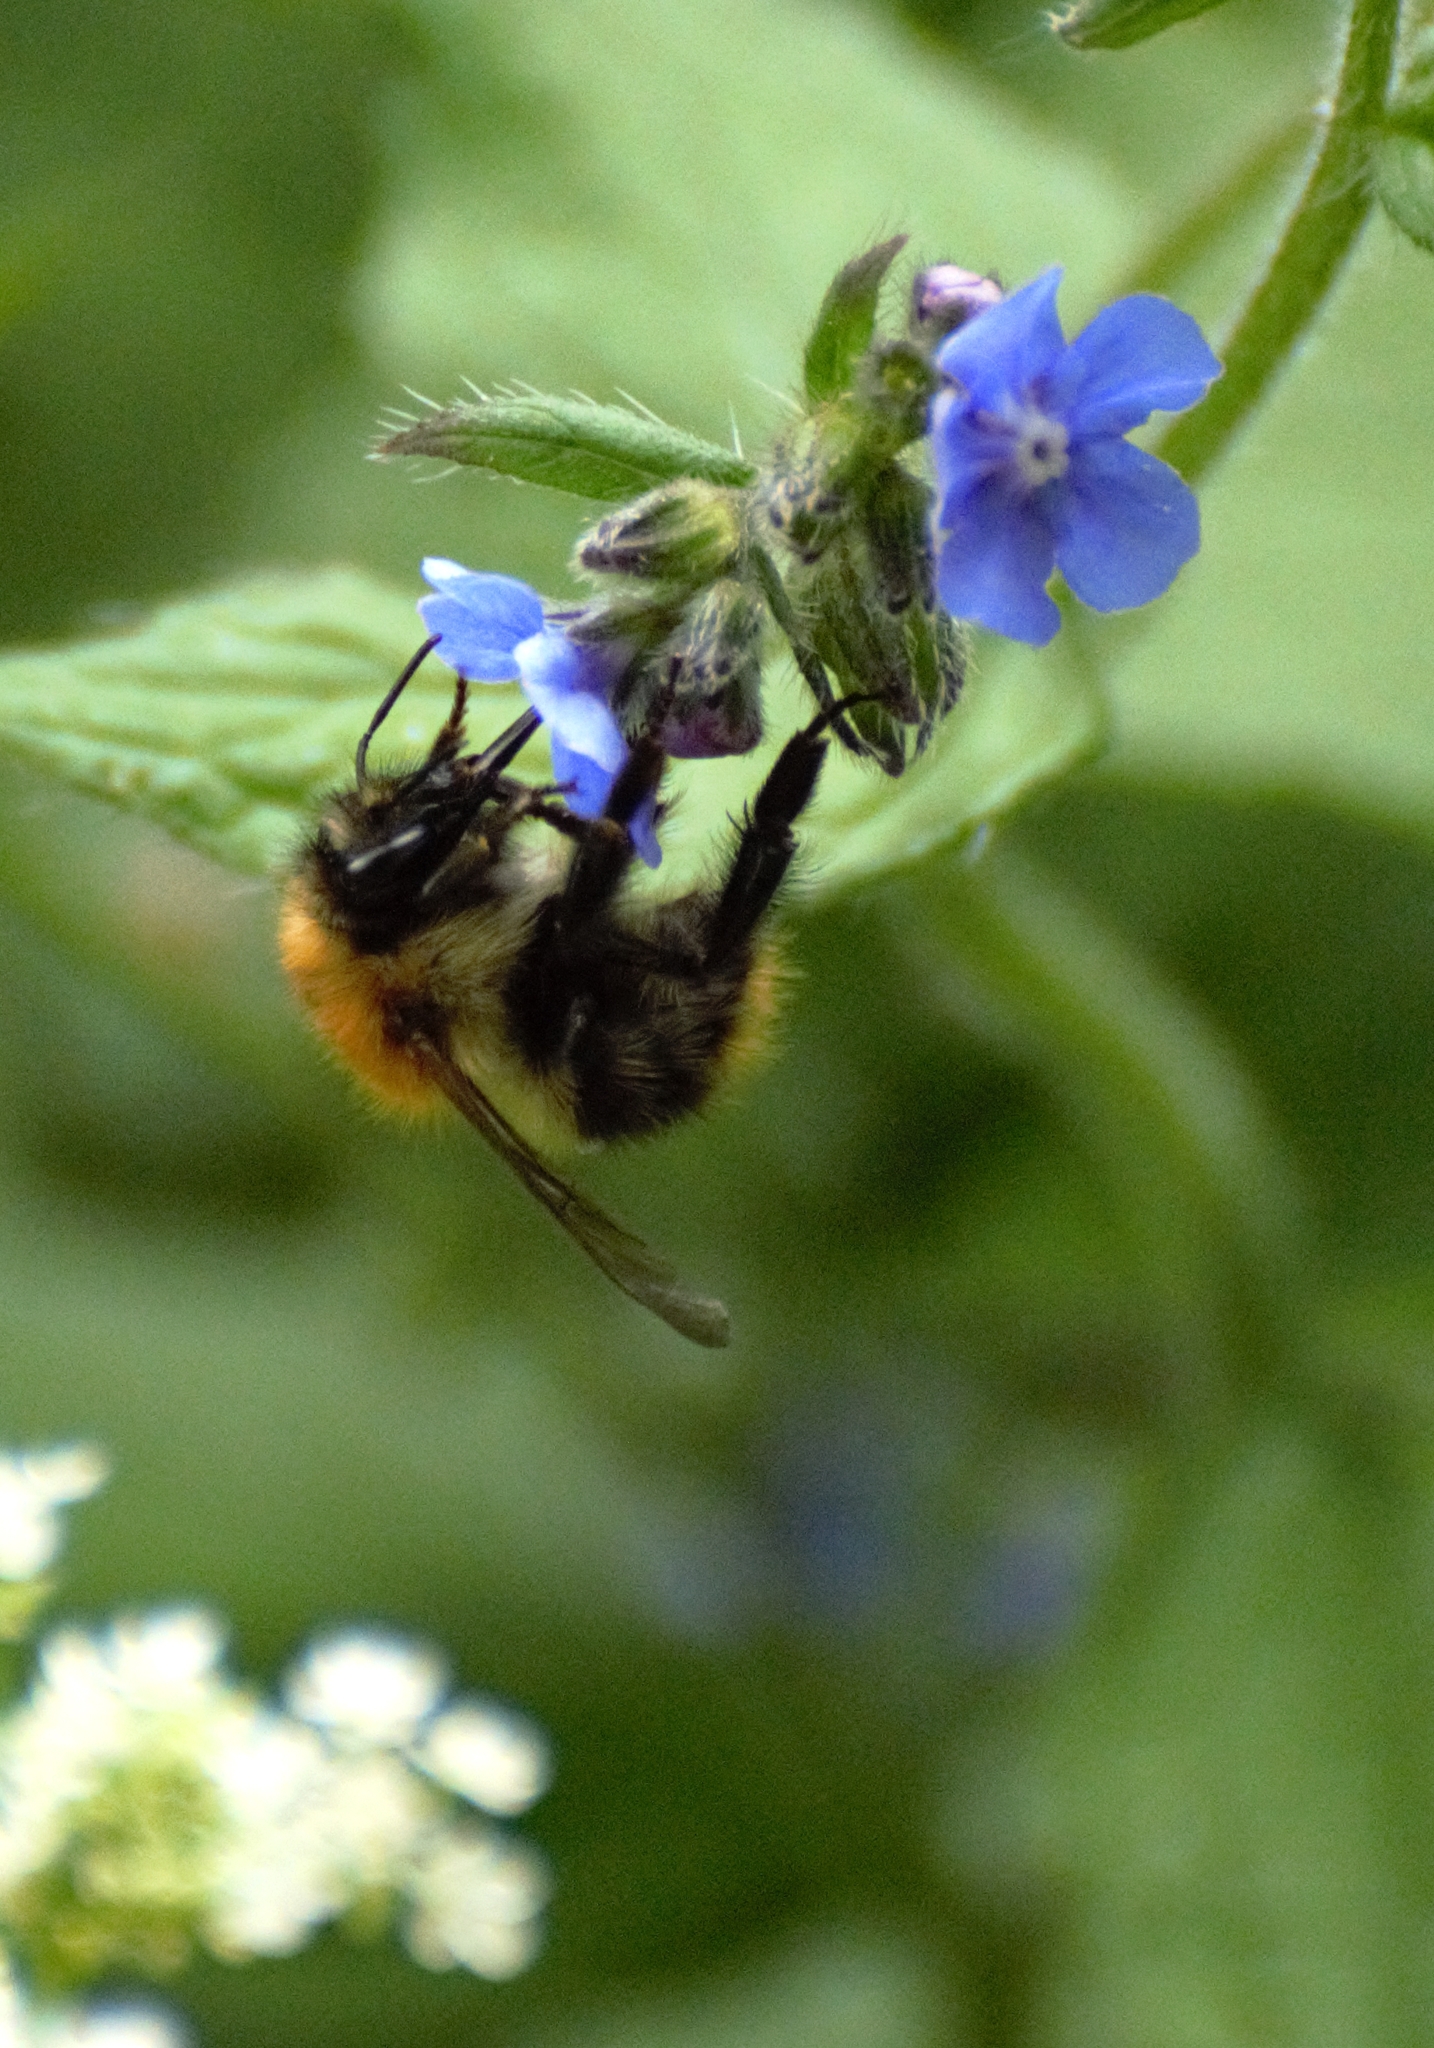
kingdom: Animalia
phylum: Arthropoda
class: Insecta
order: Hymenoptera
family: Apidae
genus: Bombus
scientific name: Bombus pascuorum
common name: Common carder bee
